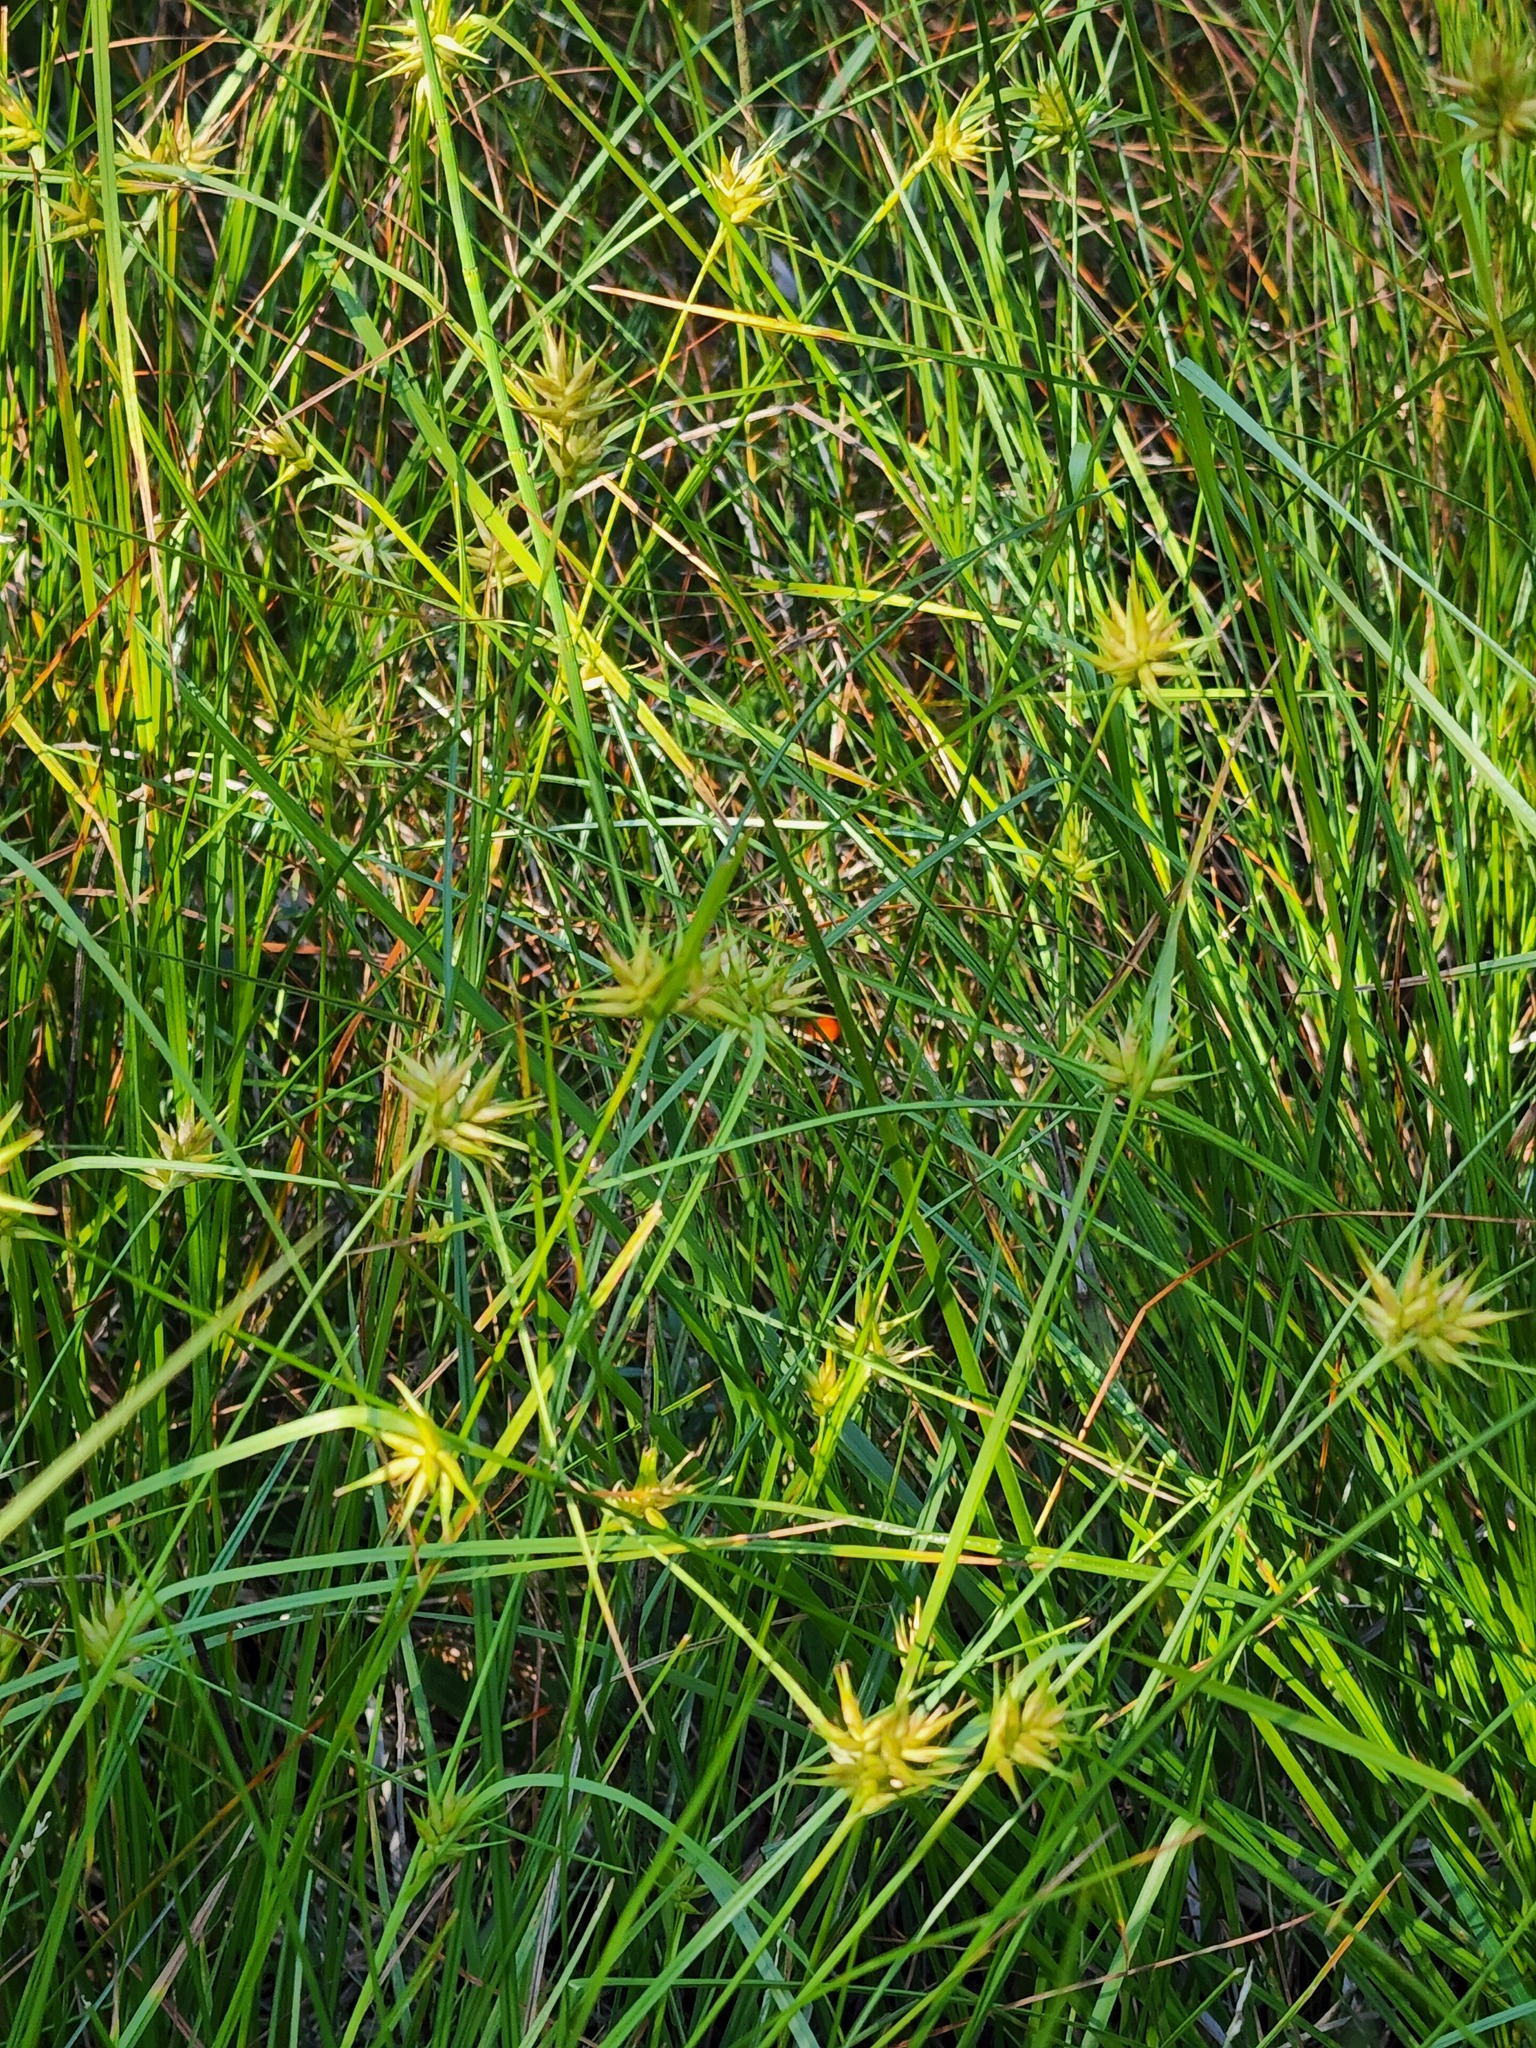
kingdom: Plantae
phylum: Tracheophyta
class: Liliopsida
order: Poales
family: Cyperaceae
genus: Carex
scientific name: Carex michauxiana
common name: Michaux's sedge
